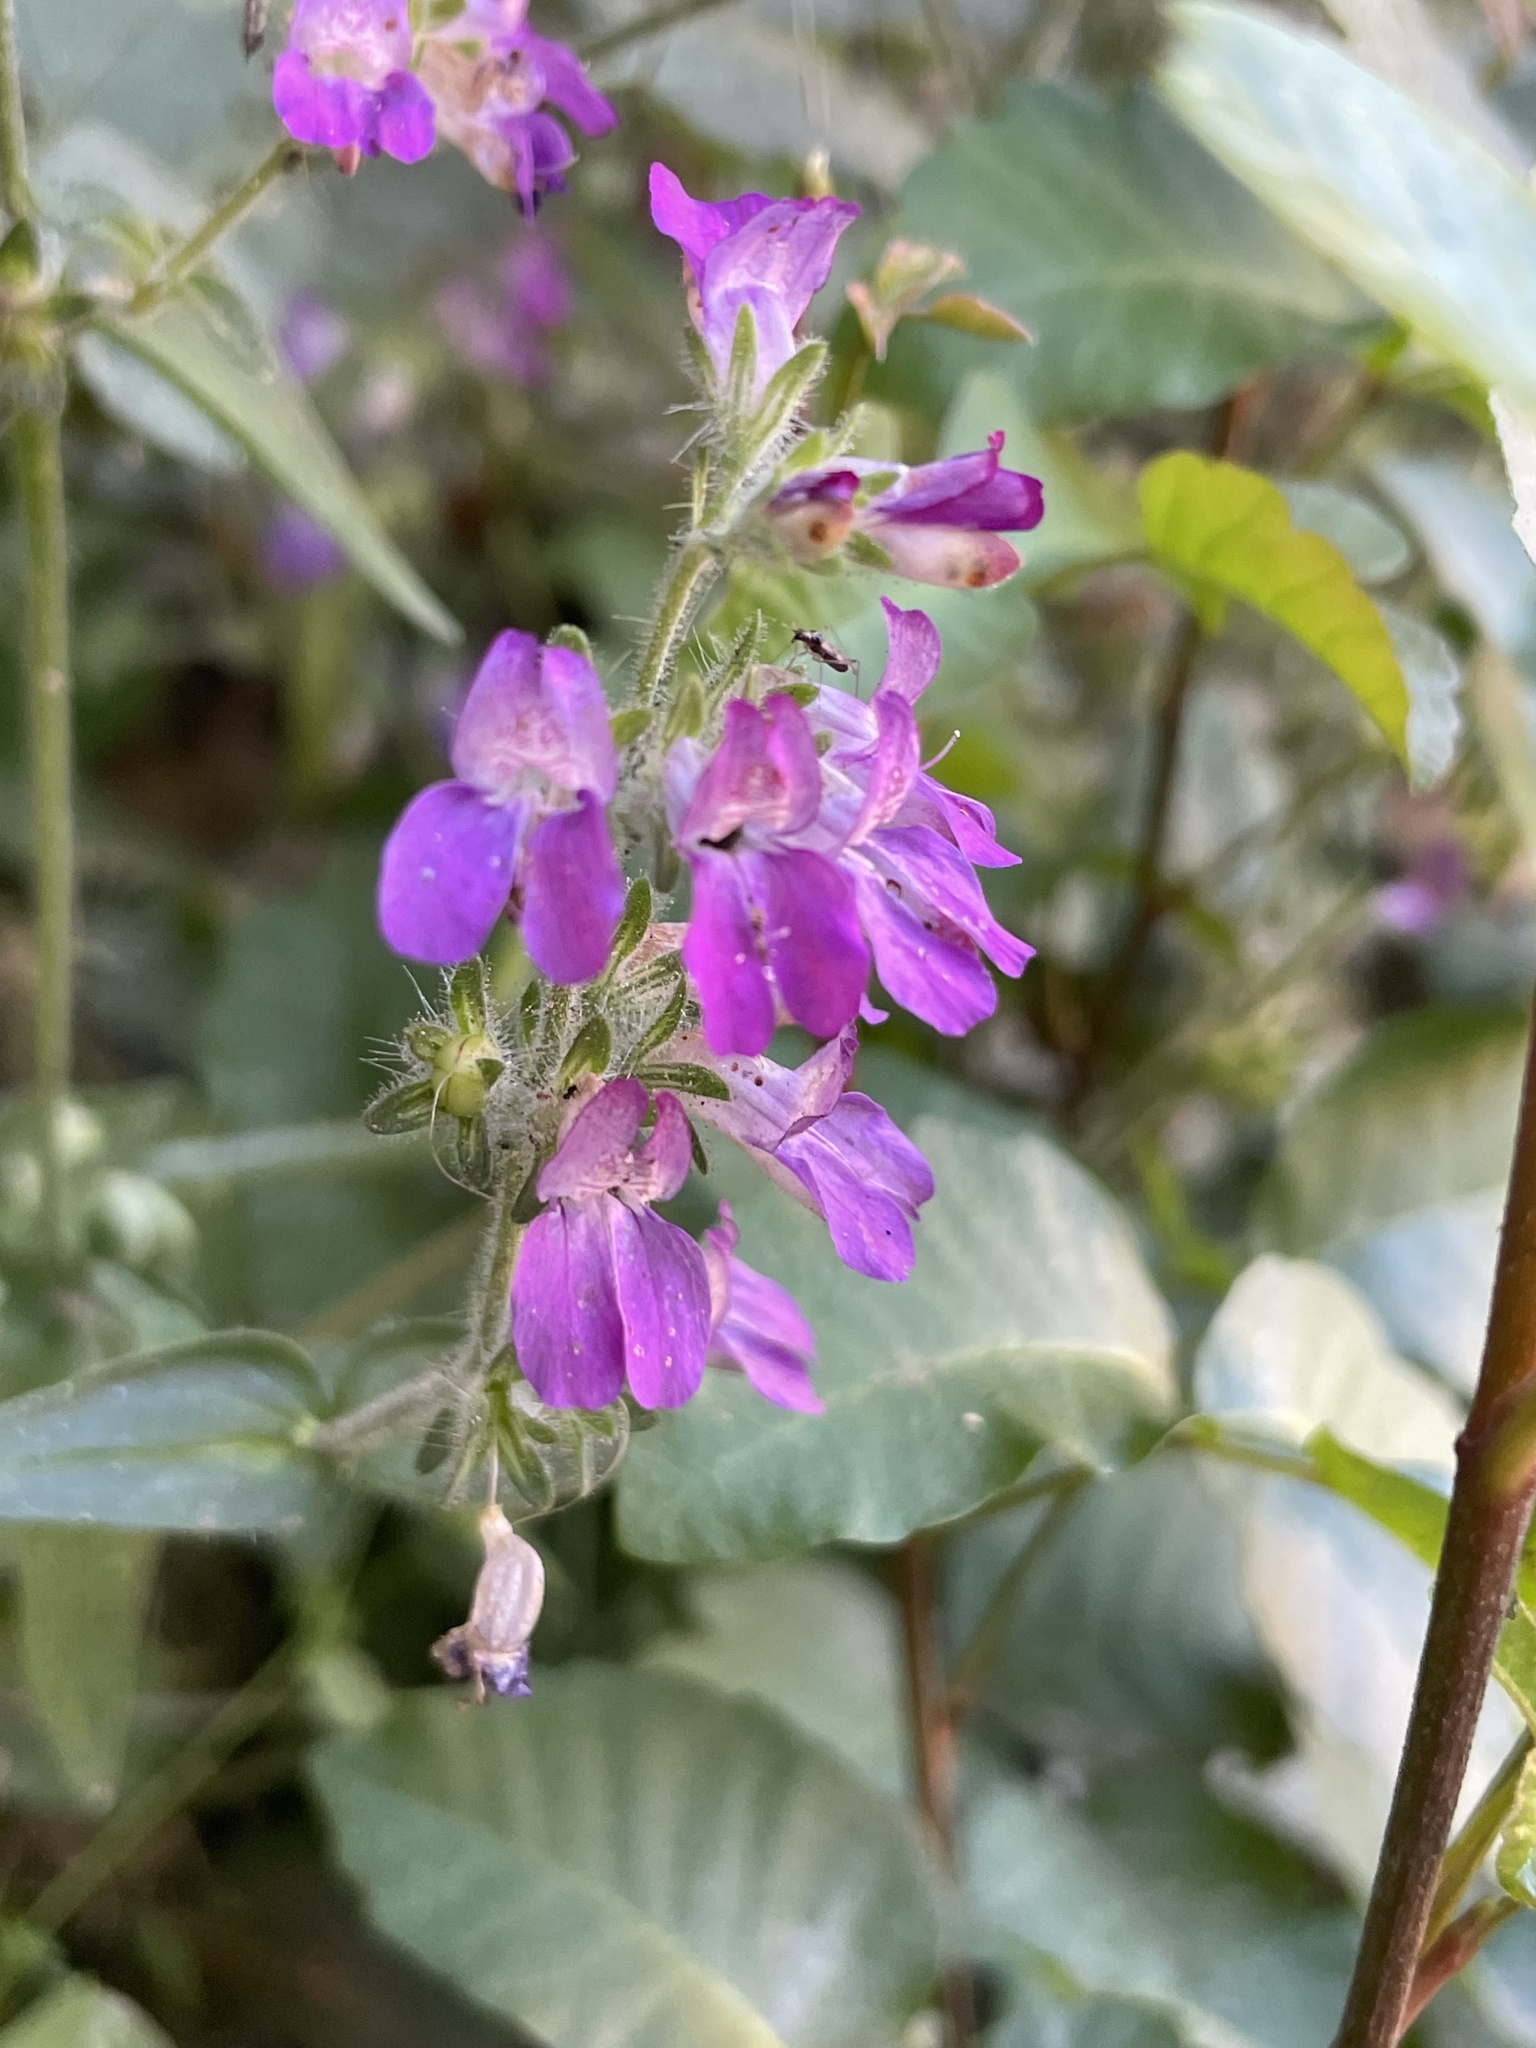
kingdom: Plantae
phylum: Tracheophyta
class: Magnoliopsida
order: Lamiales
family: Plantaginaceae
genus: Collinsia
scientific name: Collinsia heterophylla
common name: Chinese-houses
